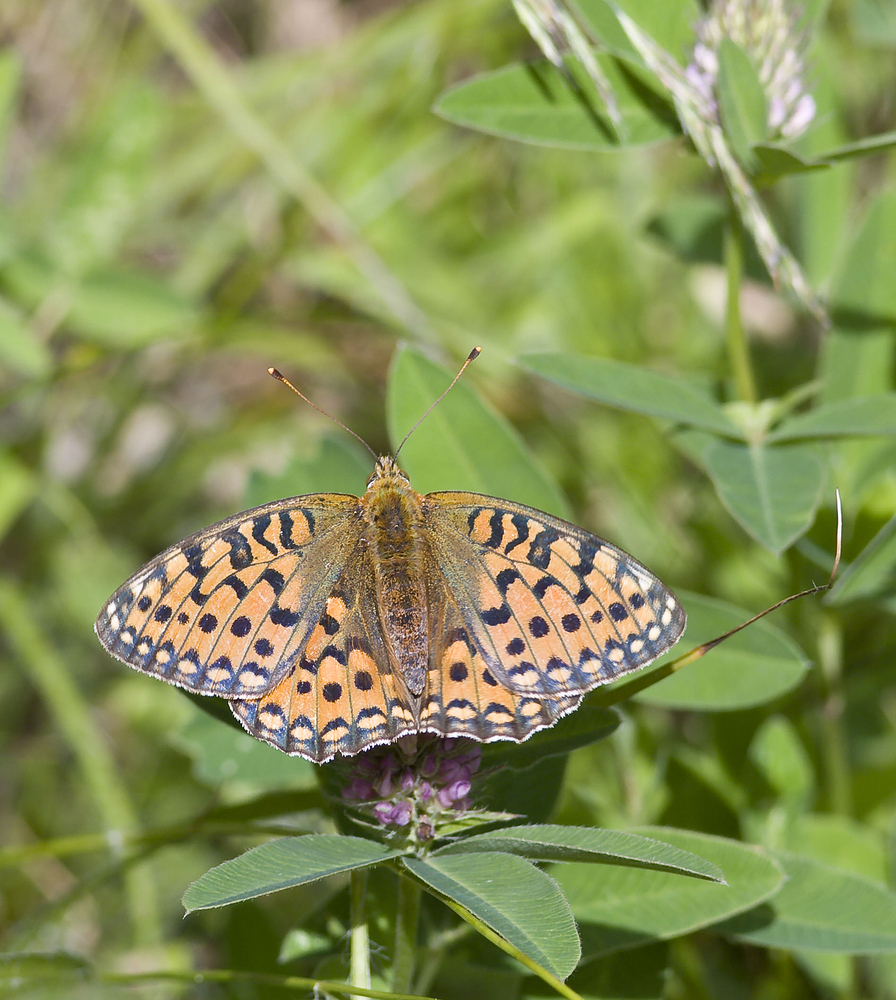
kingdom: Animalia
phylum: Arthropoda
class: Insecta
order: Lepidoptera
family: Nymphalidae
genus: Speyeria
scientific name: Speyeria aglaja
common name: Dark green fritillary
